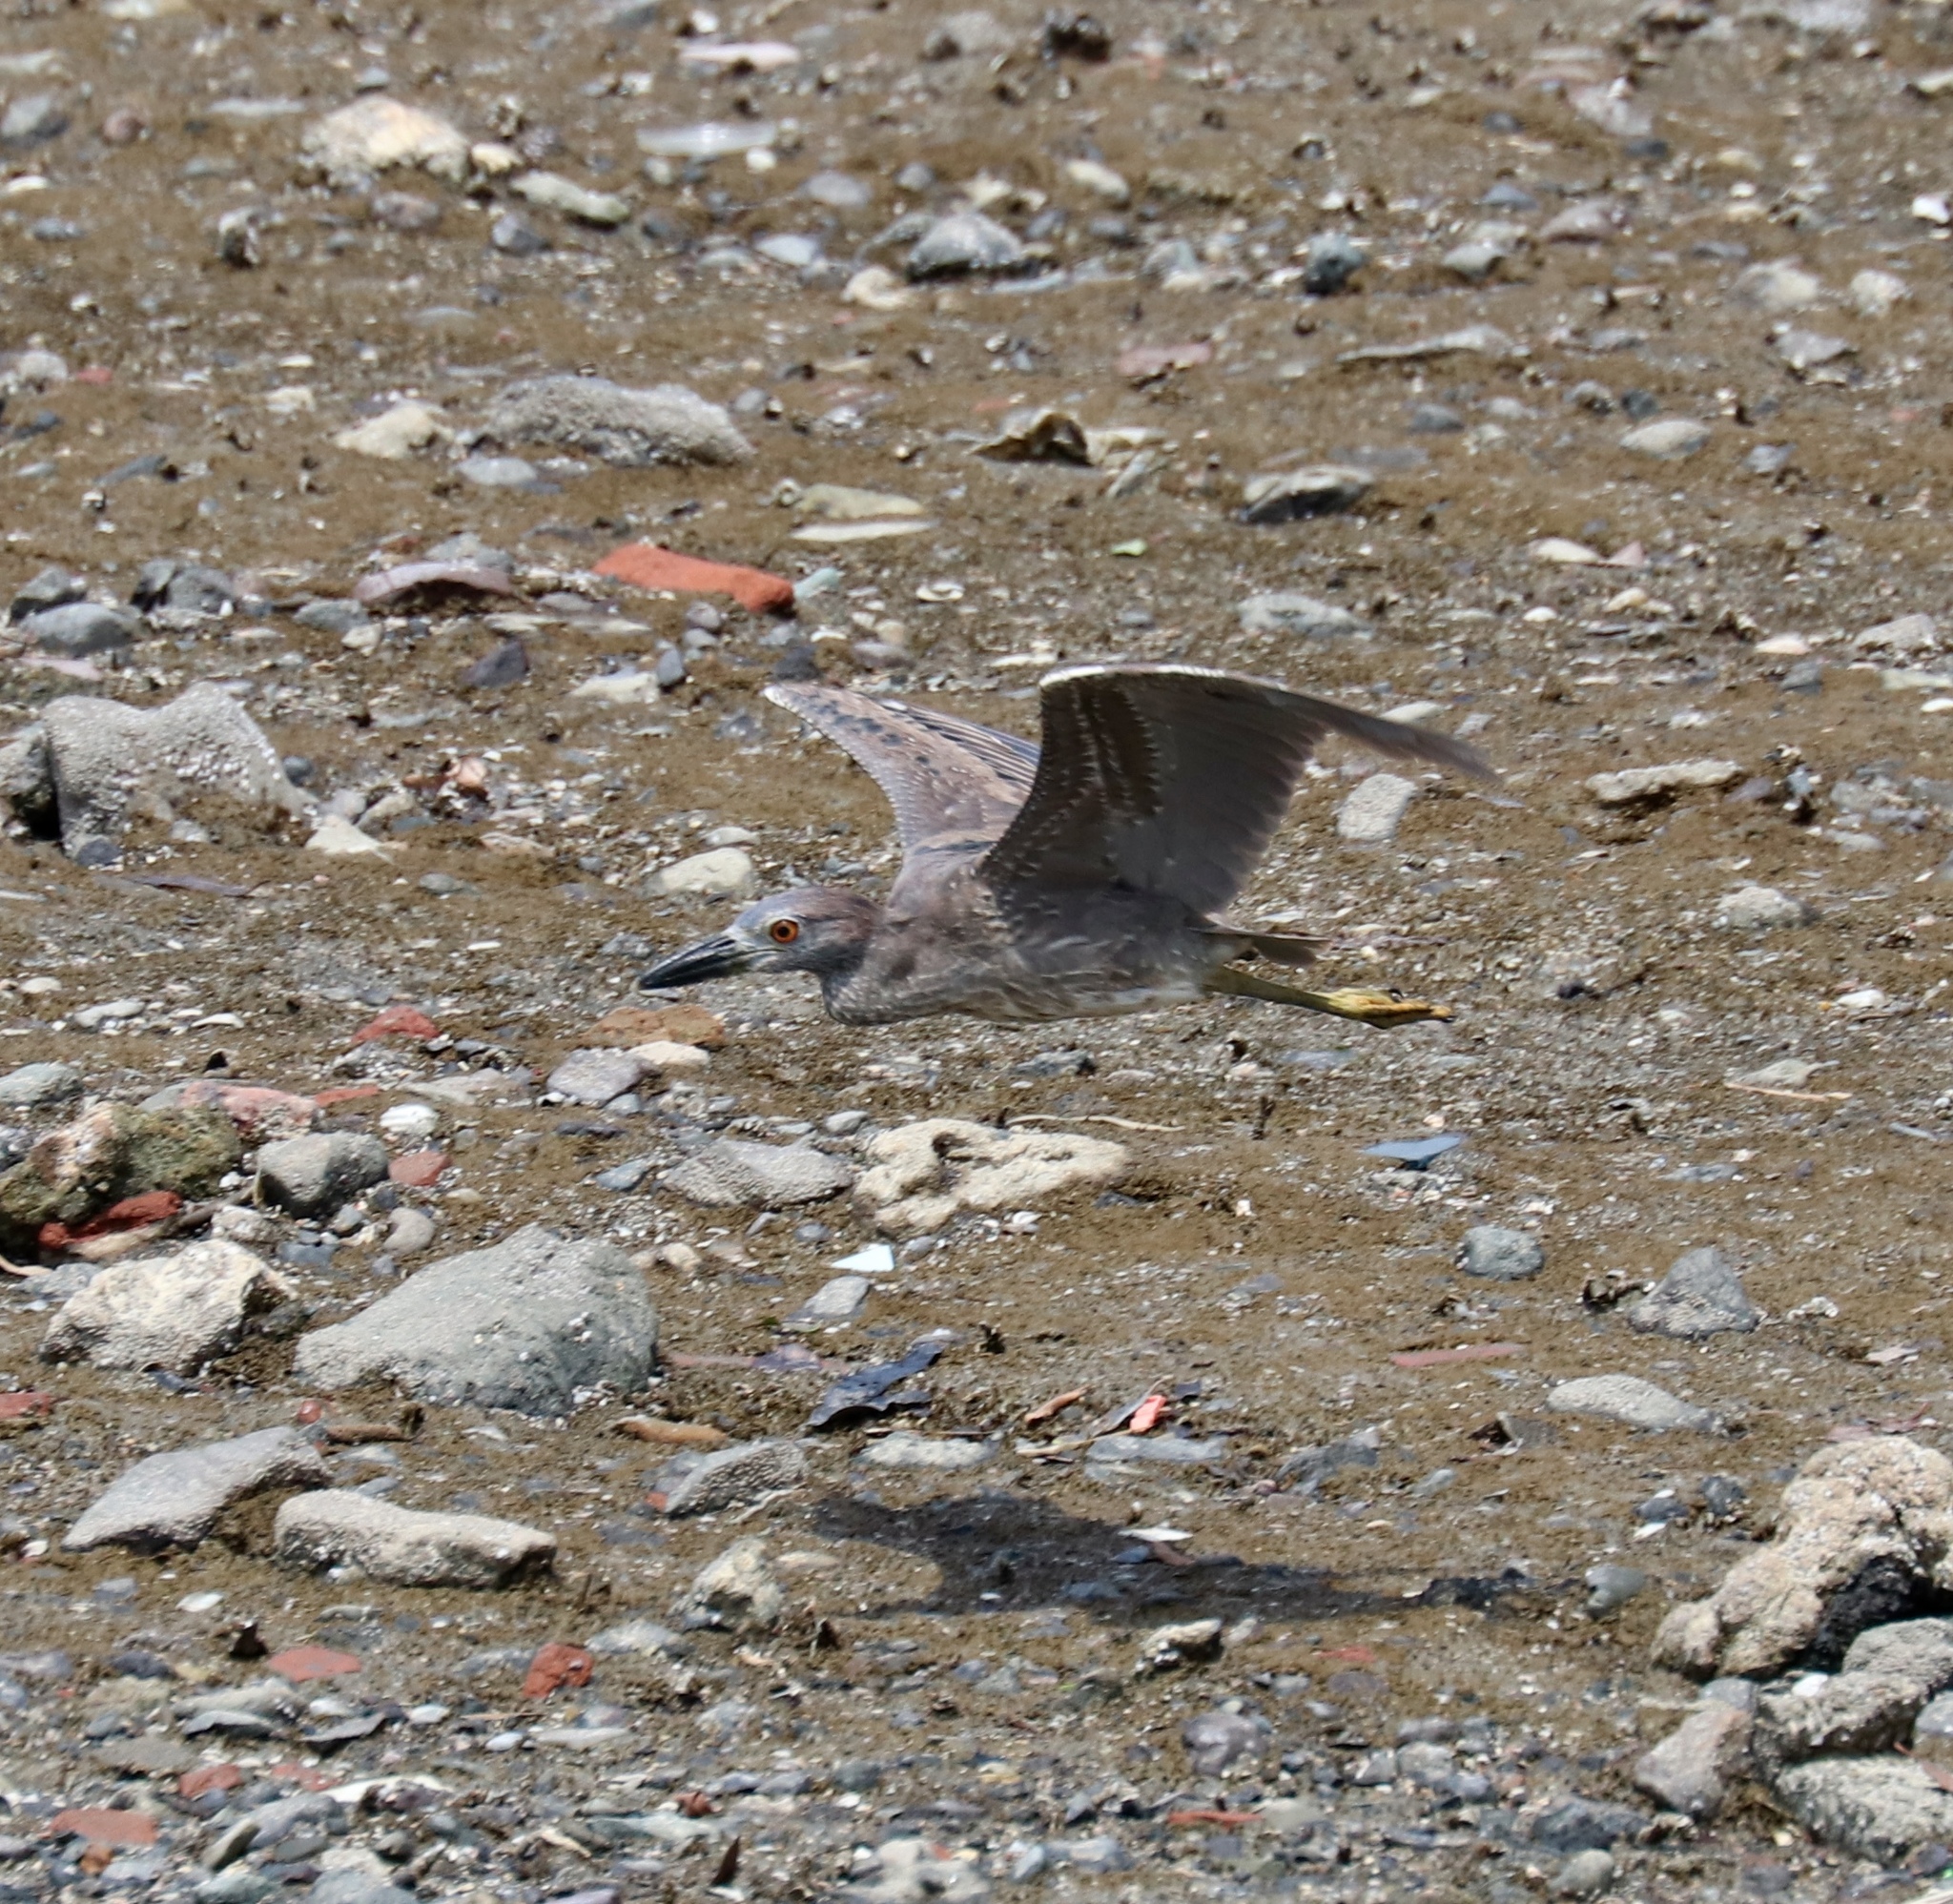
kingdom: Animalia
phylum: Chordata
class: Aves
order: Pelecaniformes
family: Ardeidae
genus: Nyctanassa
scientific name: Nyctanassa violacea
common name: Yellow-crowned night heron
